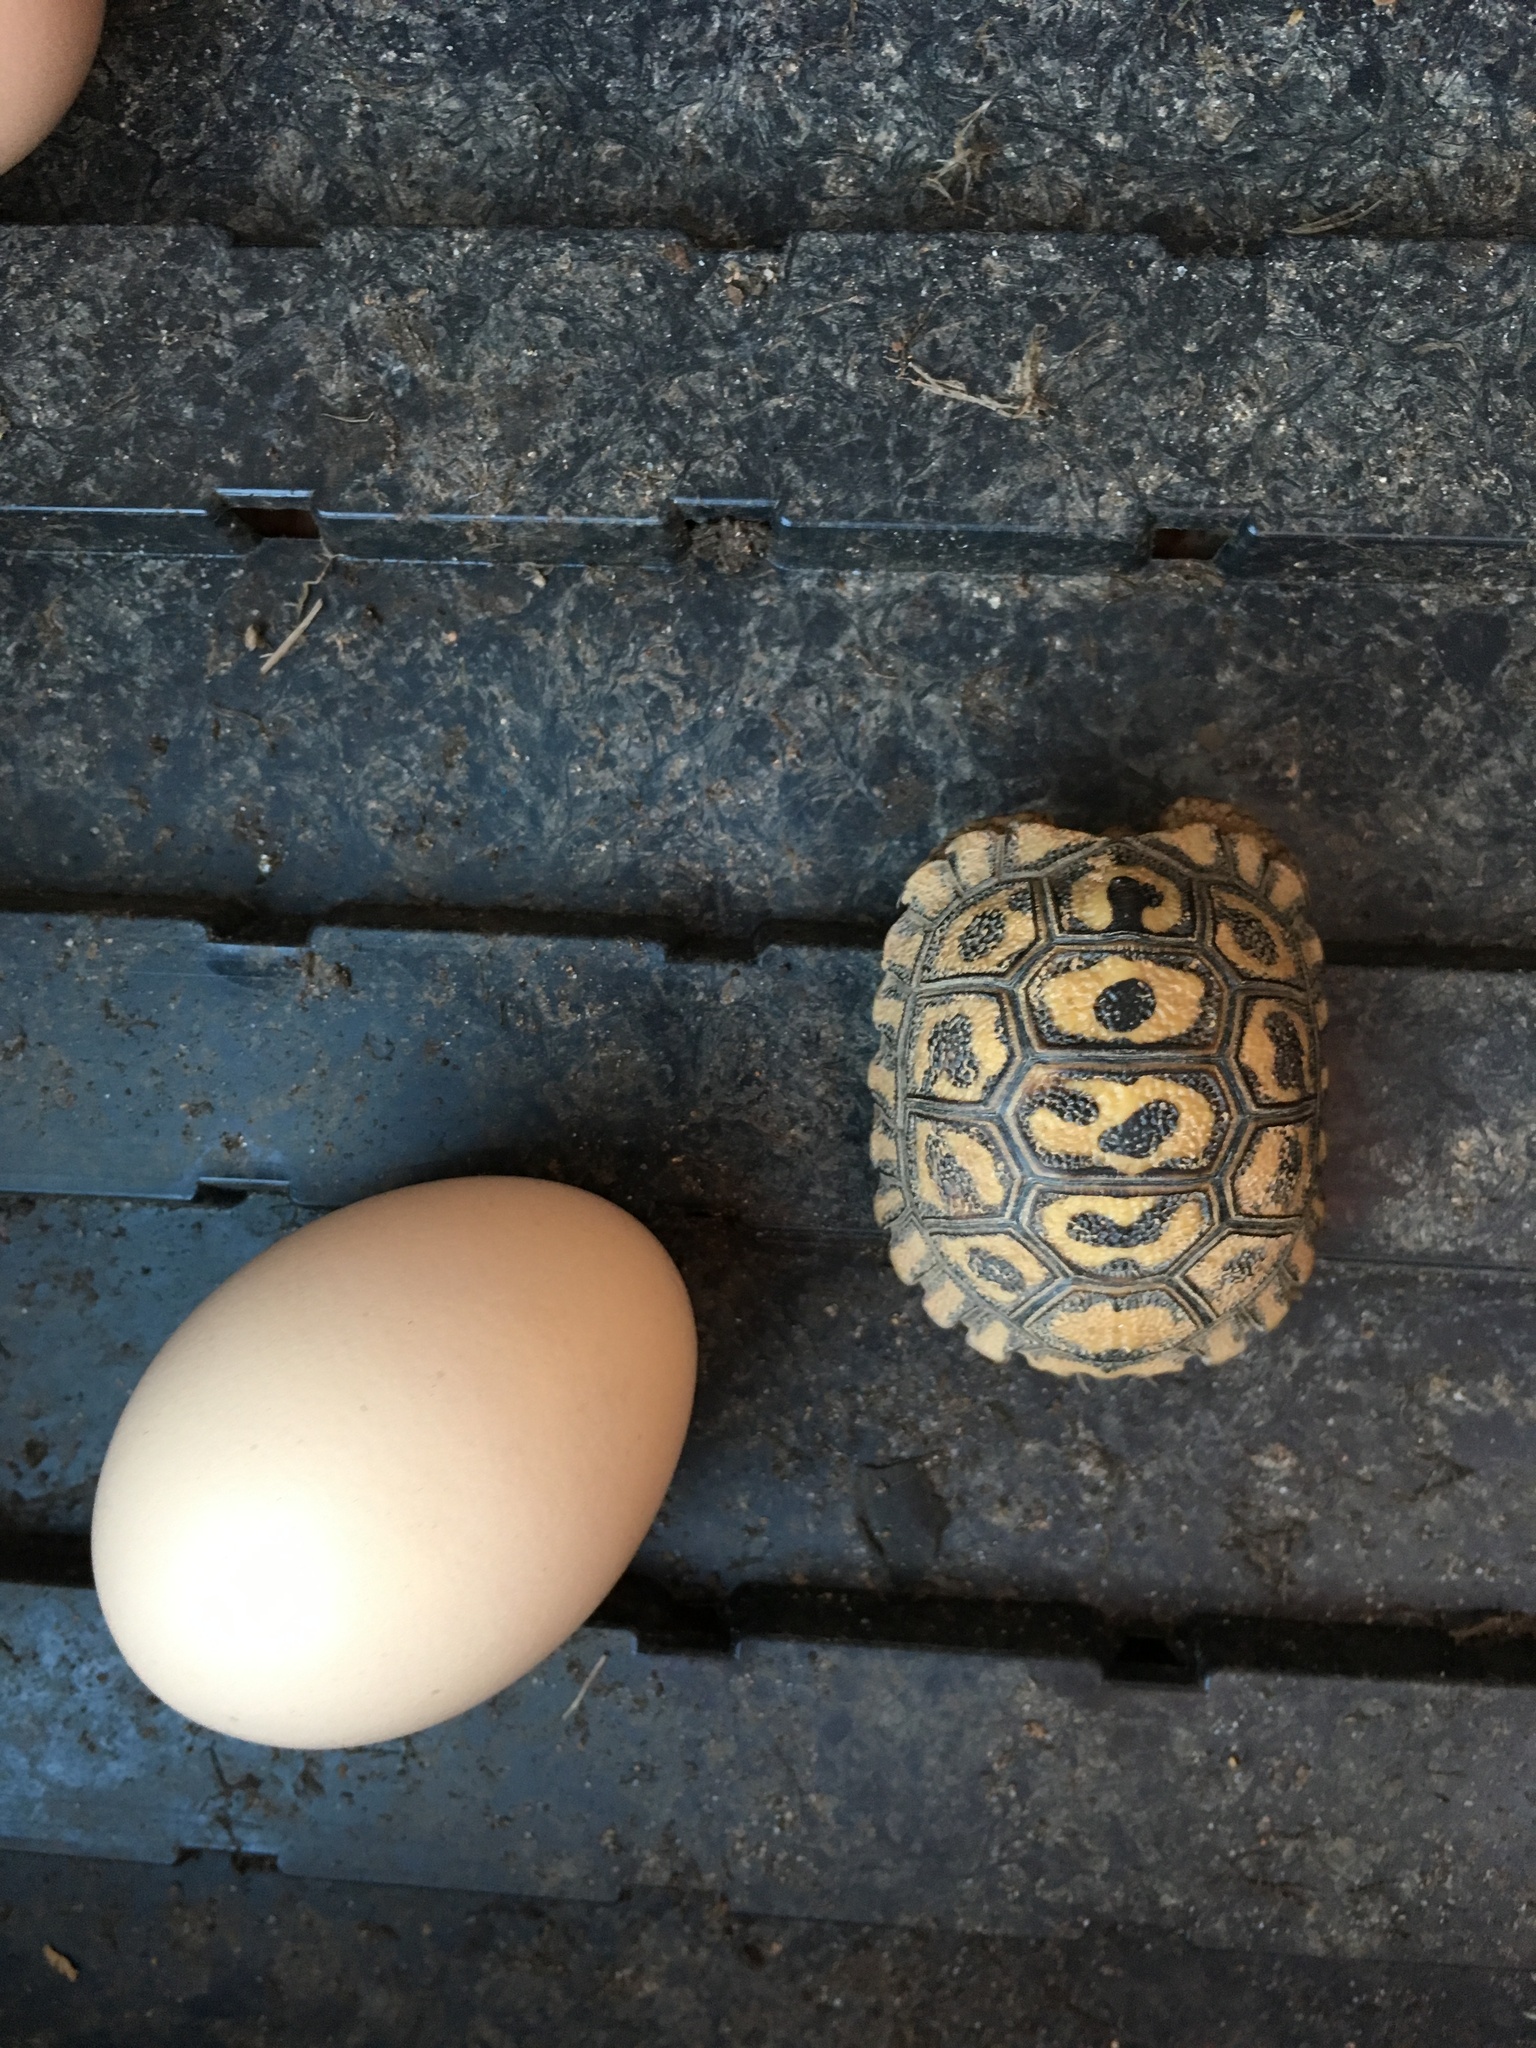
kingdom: Animalia
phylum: Chordata
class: Testudines
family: Testudinidae
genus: Stigmochelys
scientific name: Stigmochelys pardalis
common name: Leopard tortoise
